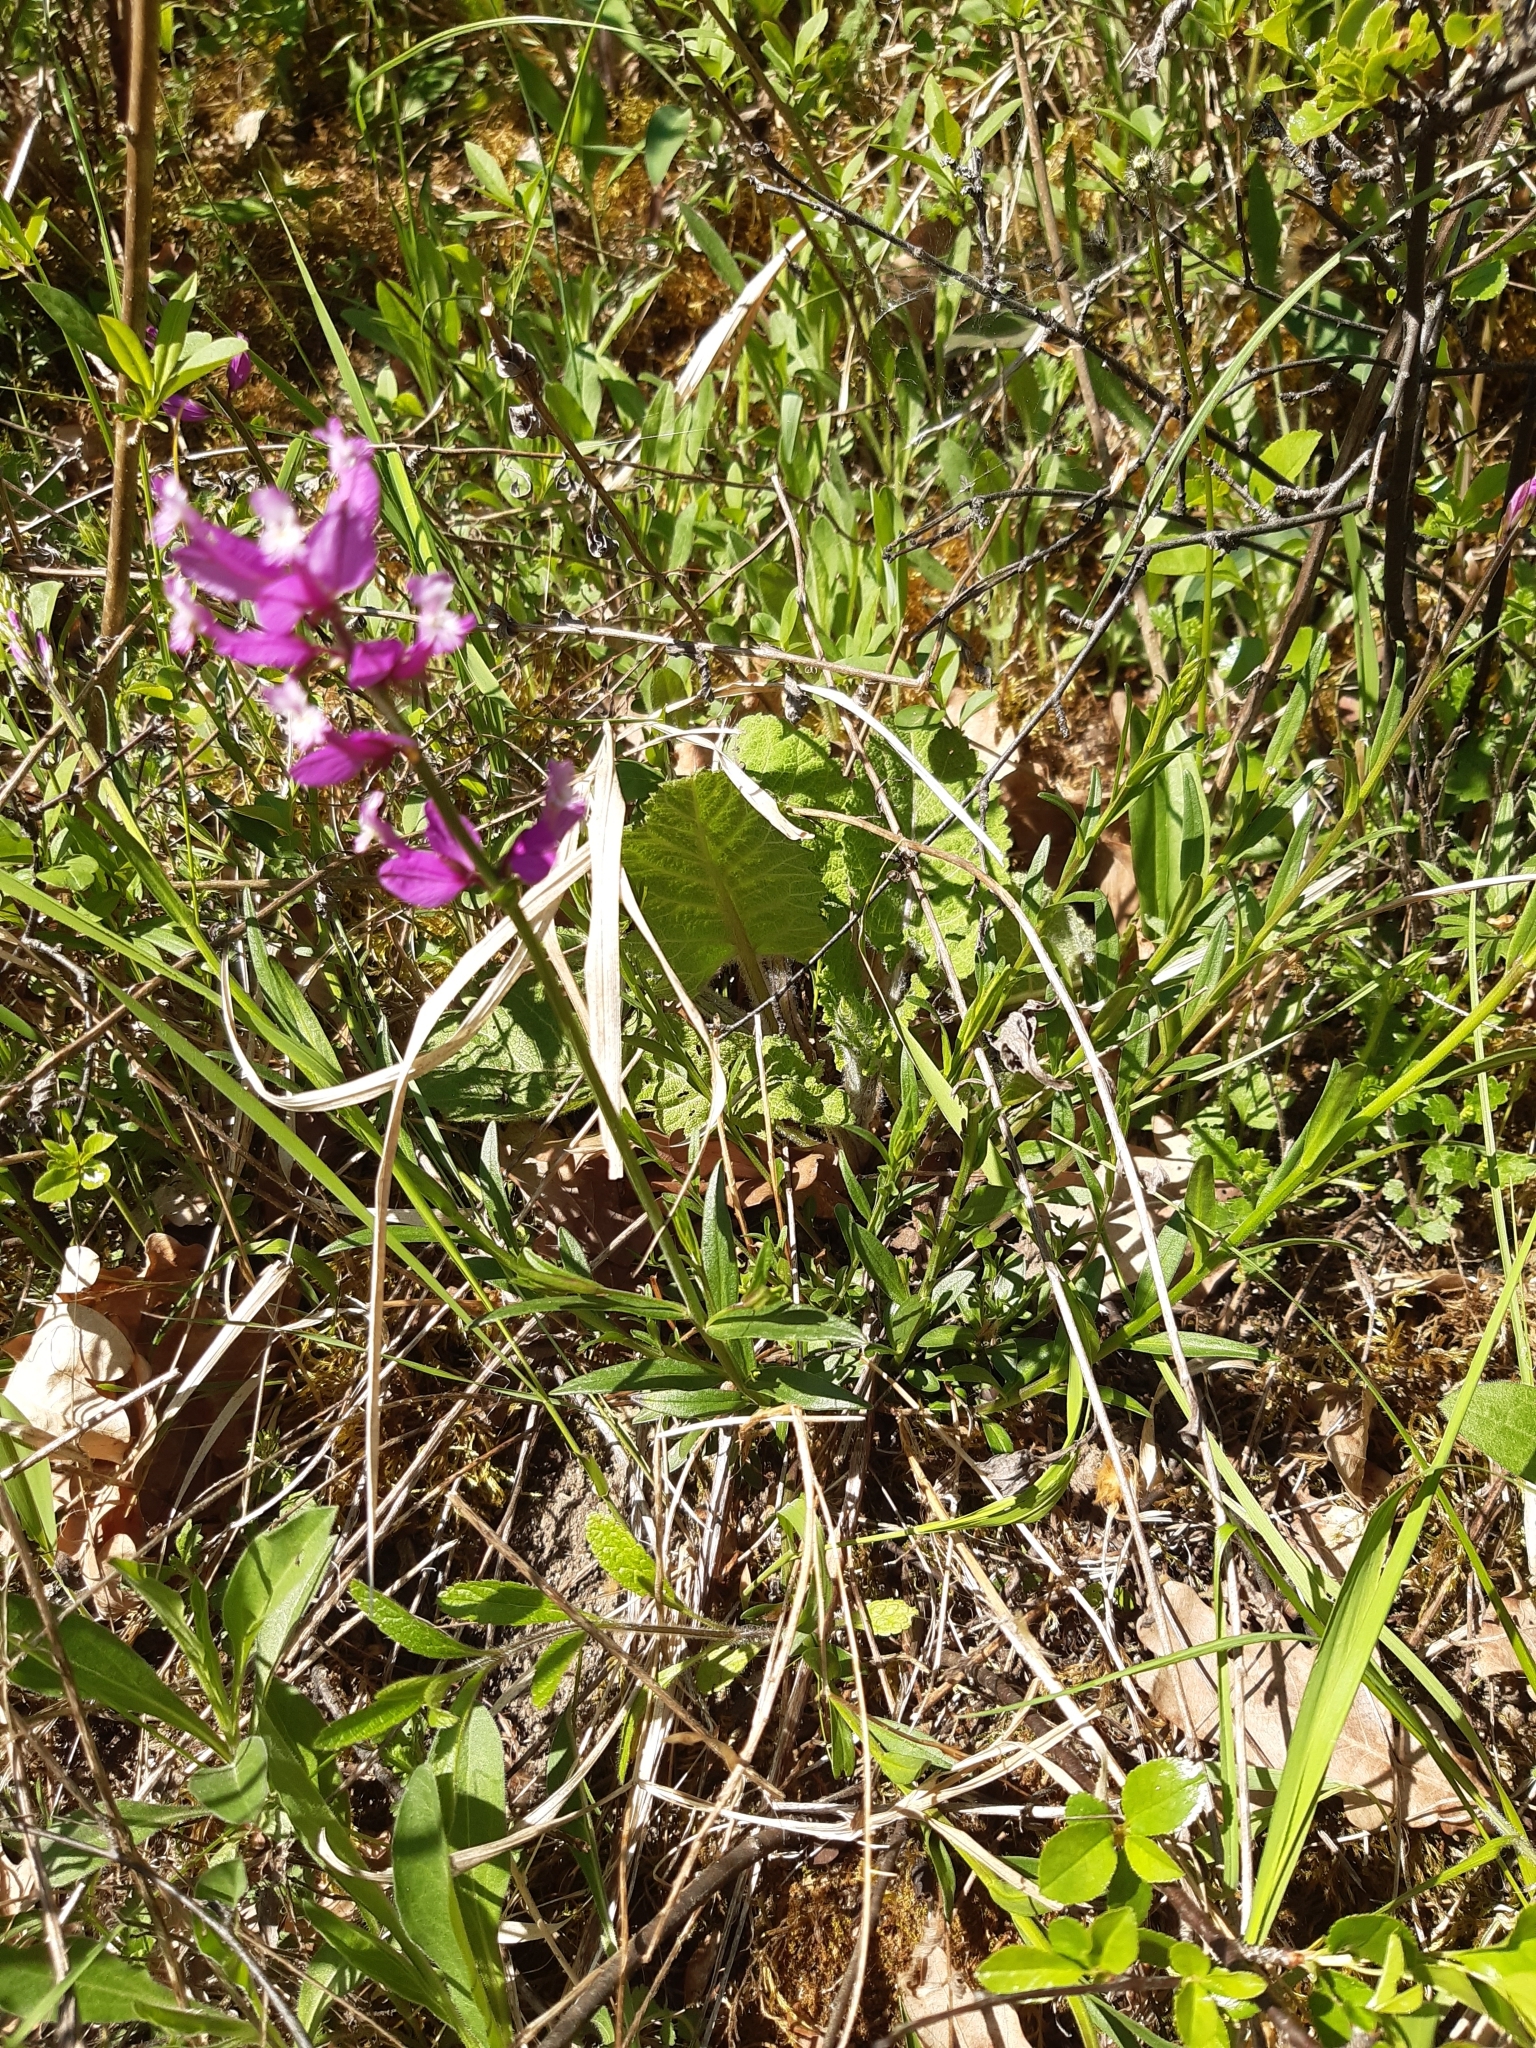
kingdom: Plantae
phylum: Tracheophyta
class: Magnoliopsida
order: Fabales
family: Polygalaceae
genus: Polygala
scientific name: Polygala major
